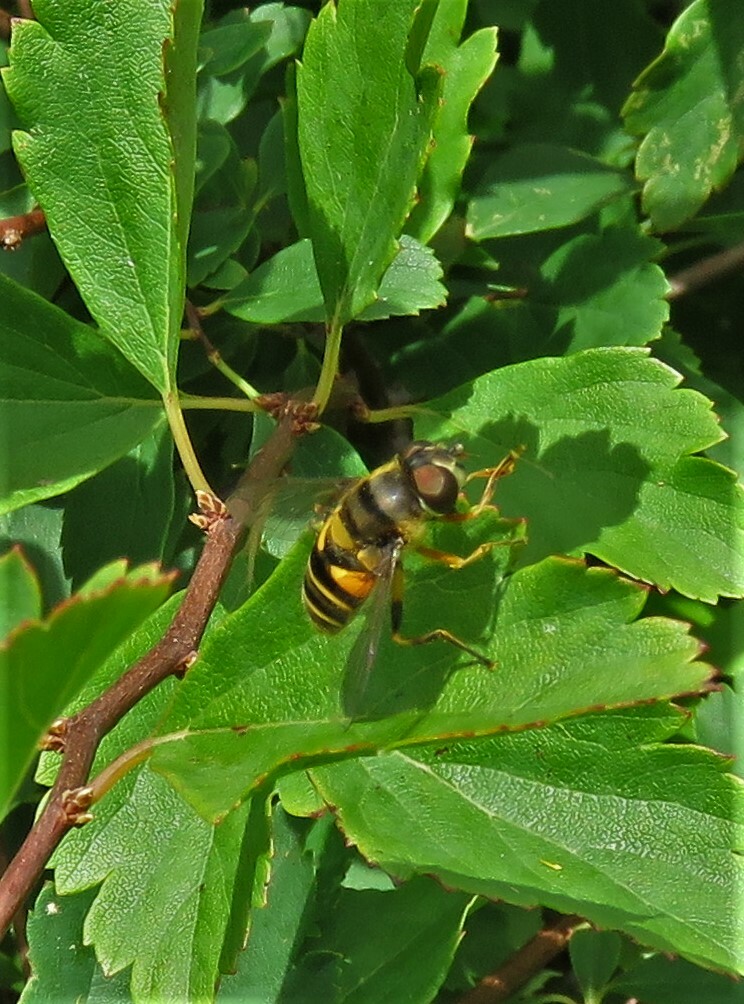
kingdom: Animalia
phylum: Arthropoda
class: Insecta
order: Diptera
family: Syrphidae
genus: Eristalis
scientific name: Eristalis transversa
